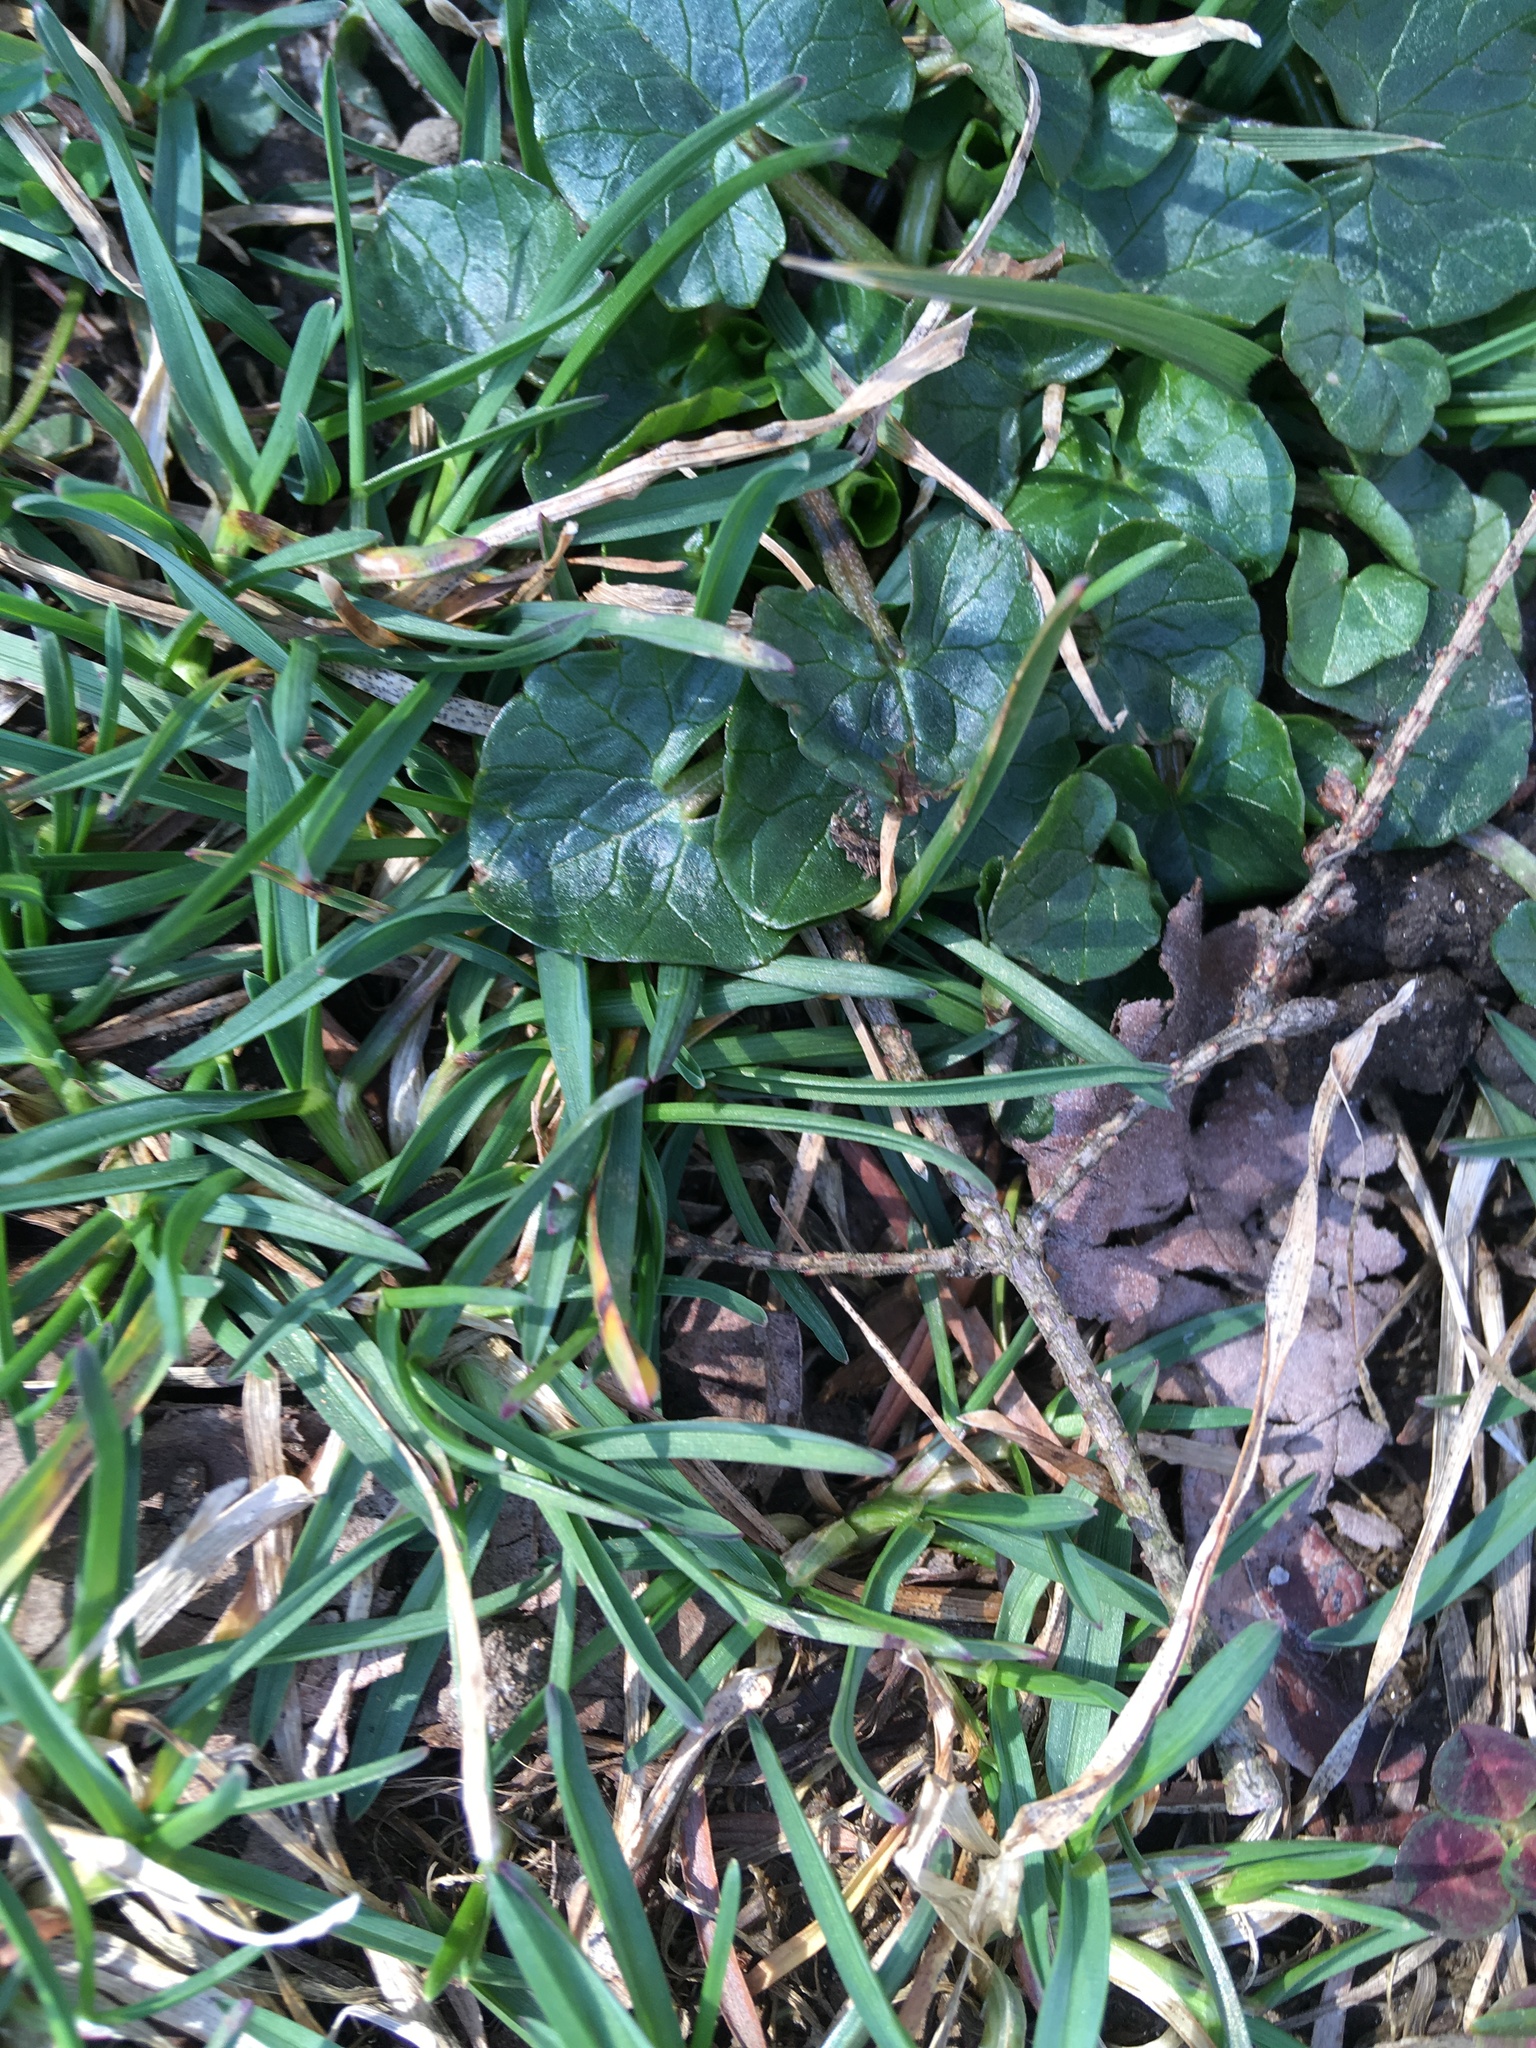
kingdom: Plantae
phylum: Tracheophyta
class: Magnoliopsida
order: Ranunculales
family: Ranunculaceae
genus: Ficaria
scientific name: Ficaria verna
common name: Lesser celandine
